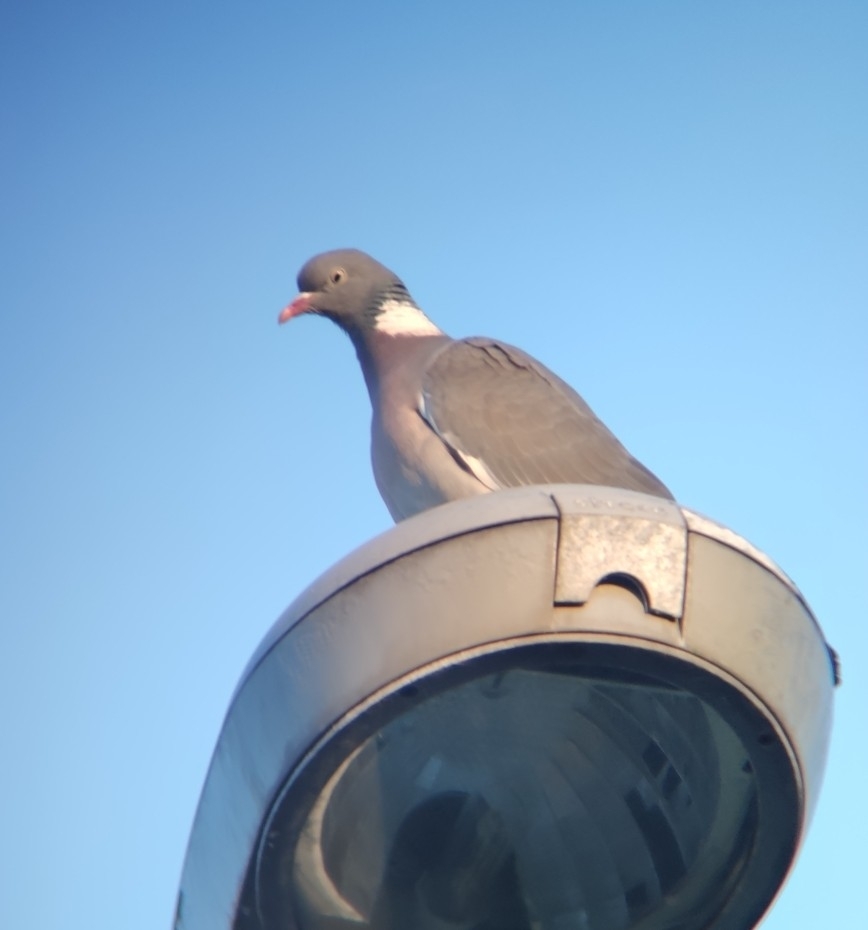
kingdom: Animalia
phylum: Chordata
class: Aves
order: Columbiformes
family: Columbidae
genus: Columba
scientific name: Columba palumbus
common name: Common wood pigeon
